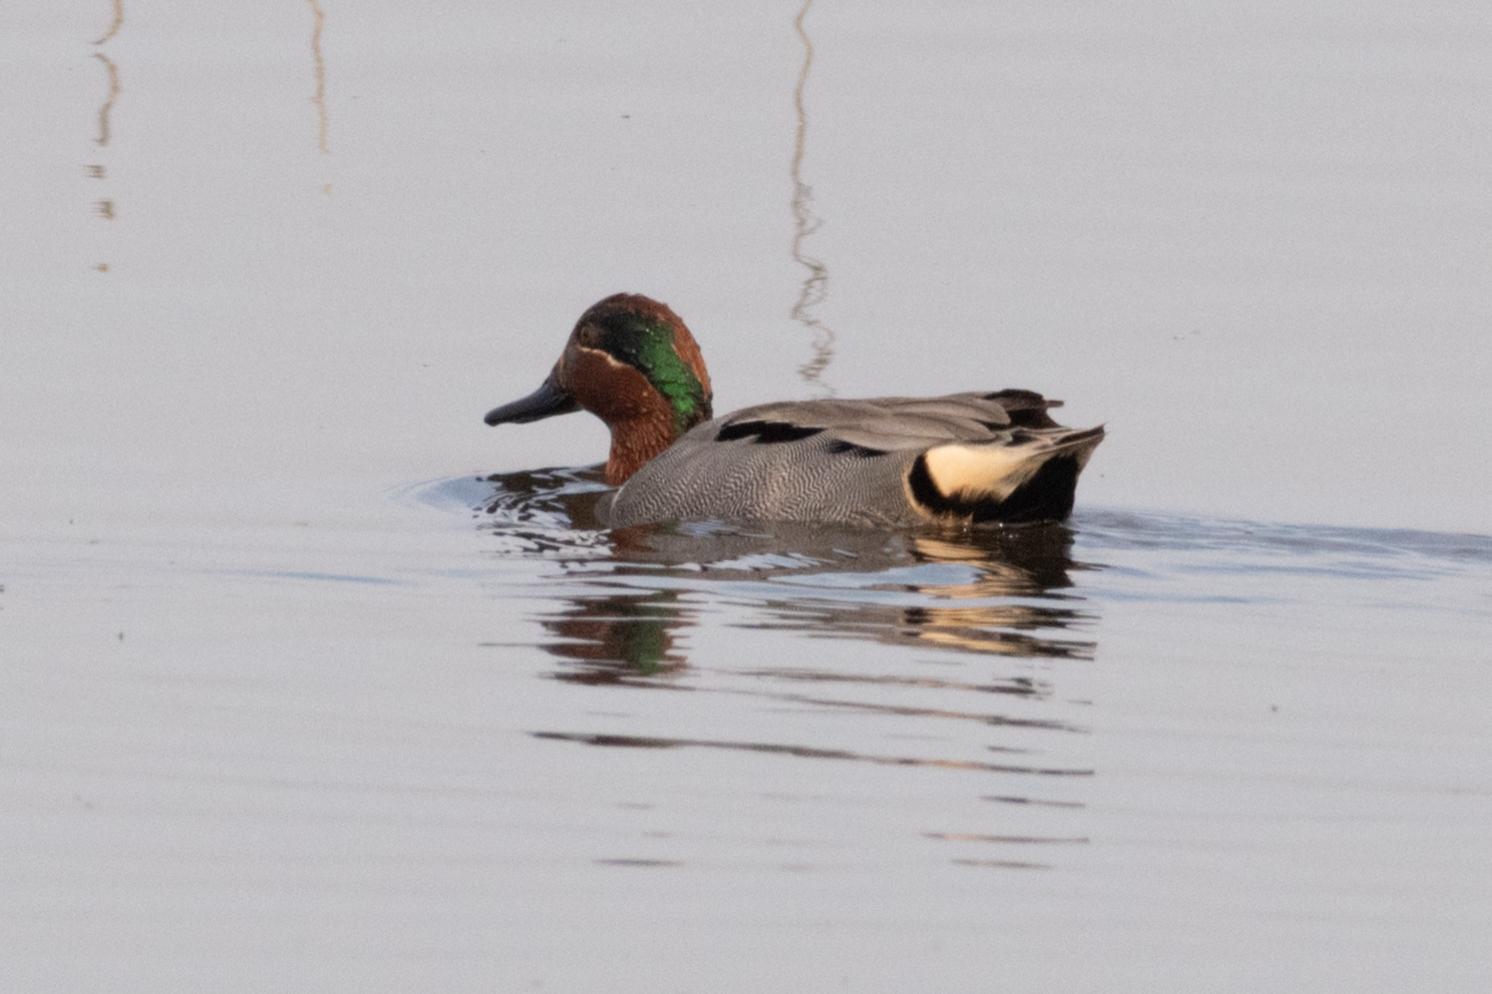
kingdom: Animalia
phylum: Chordata
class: Aves
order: Anseriformes
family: Anatidae
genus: Anas
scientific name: Anas crecca
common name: Eurasian teal
